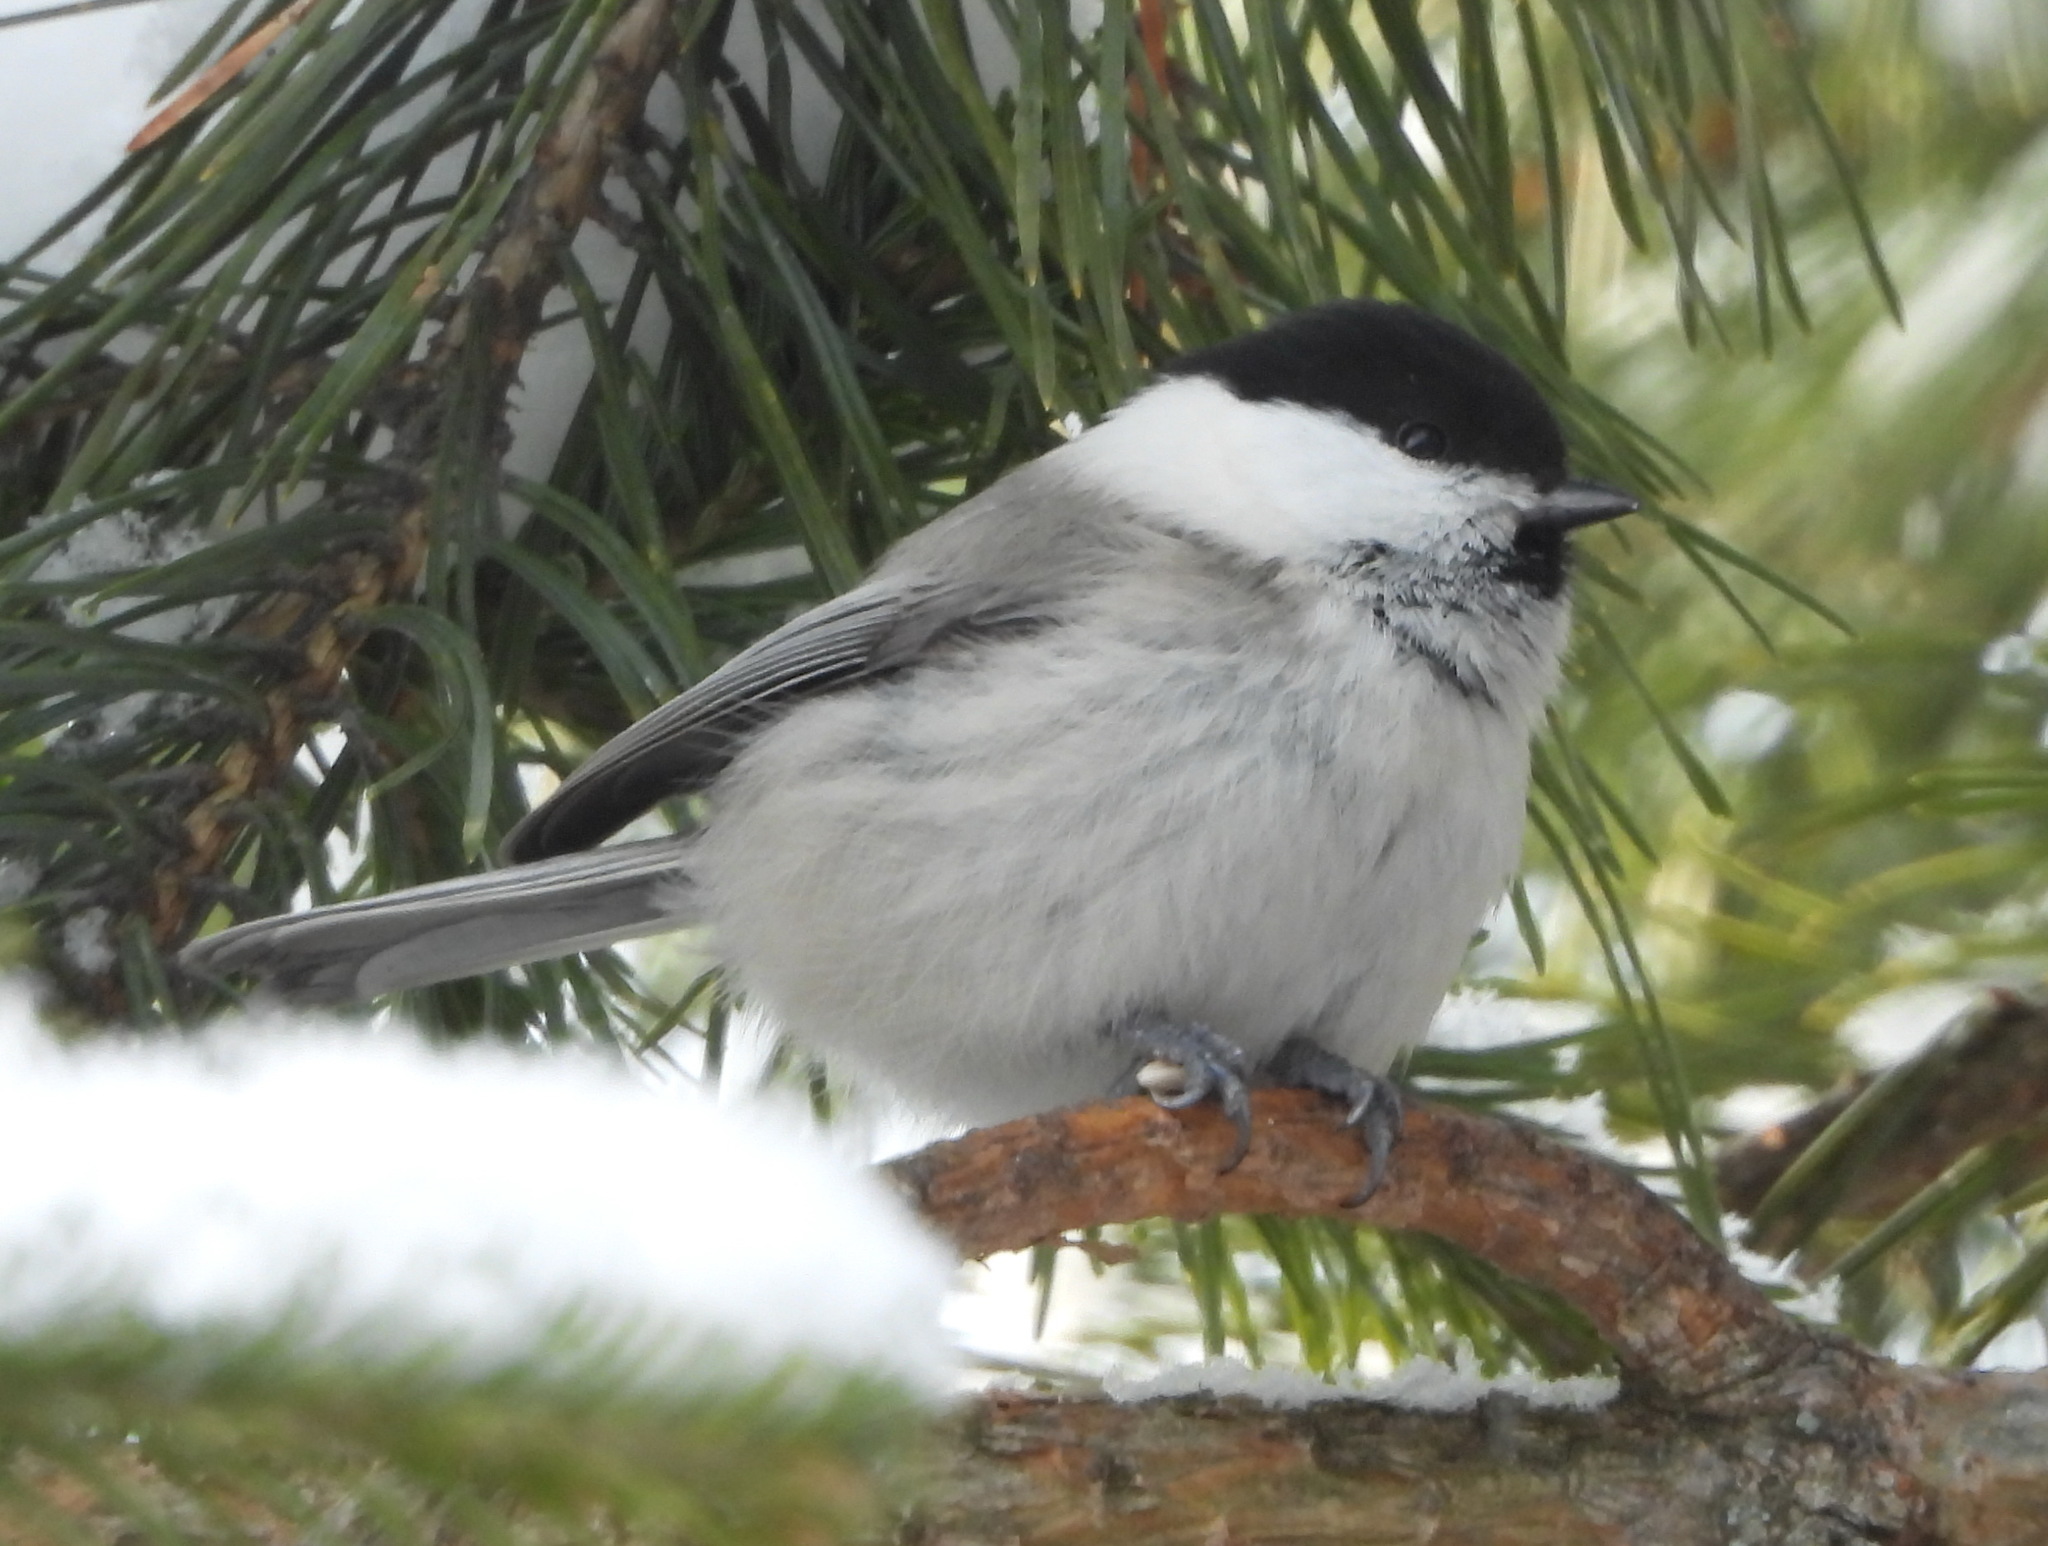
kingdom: Animalia
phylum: Chordata
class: Aves
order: Passeriformes
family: Paridae
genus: Poecile
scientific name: Poecile montanus
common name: Willow tit
